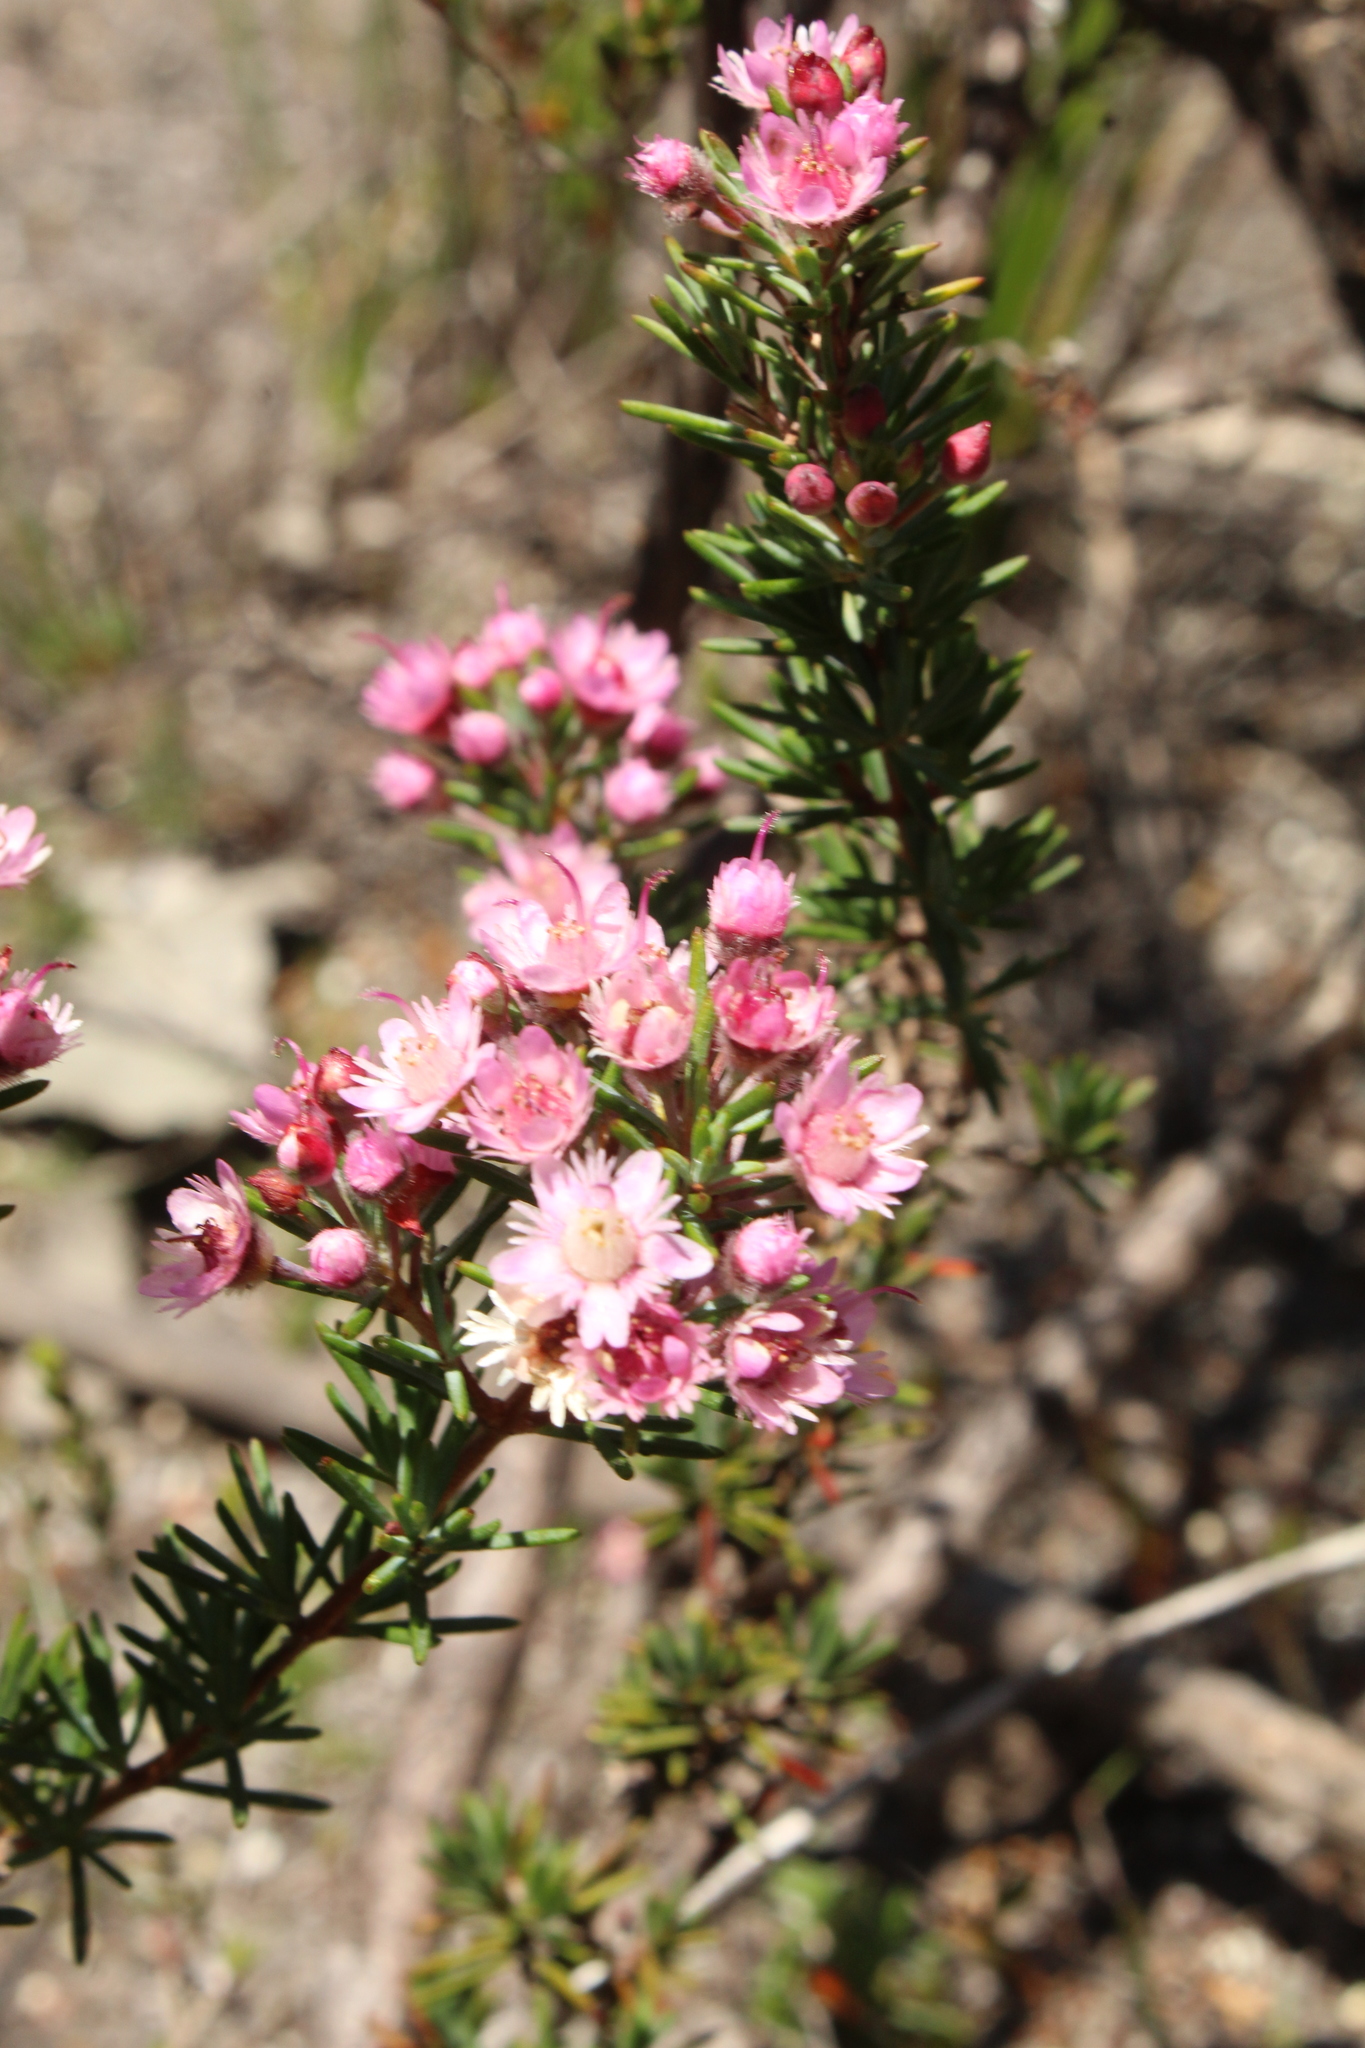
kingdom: Plantae
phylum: Tracheophyta
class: Magnoliopsida
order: Myrtales
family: Myrtaceae
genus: Verticordia
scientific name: Verticordia plumosa
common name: Plume feather-flower
